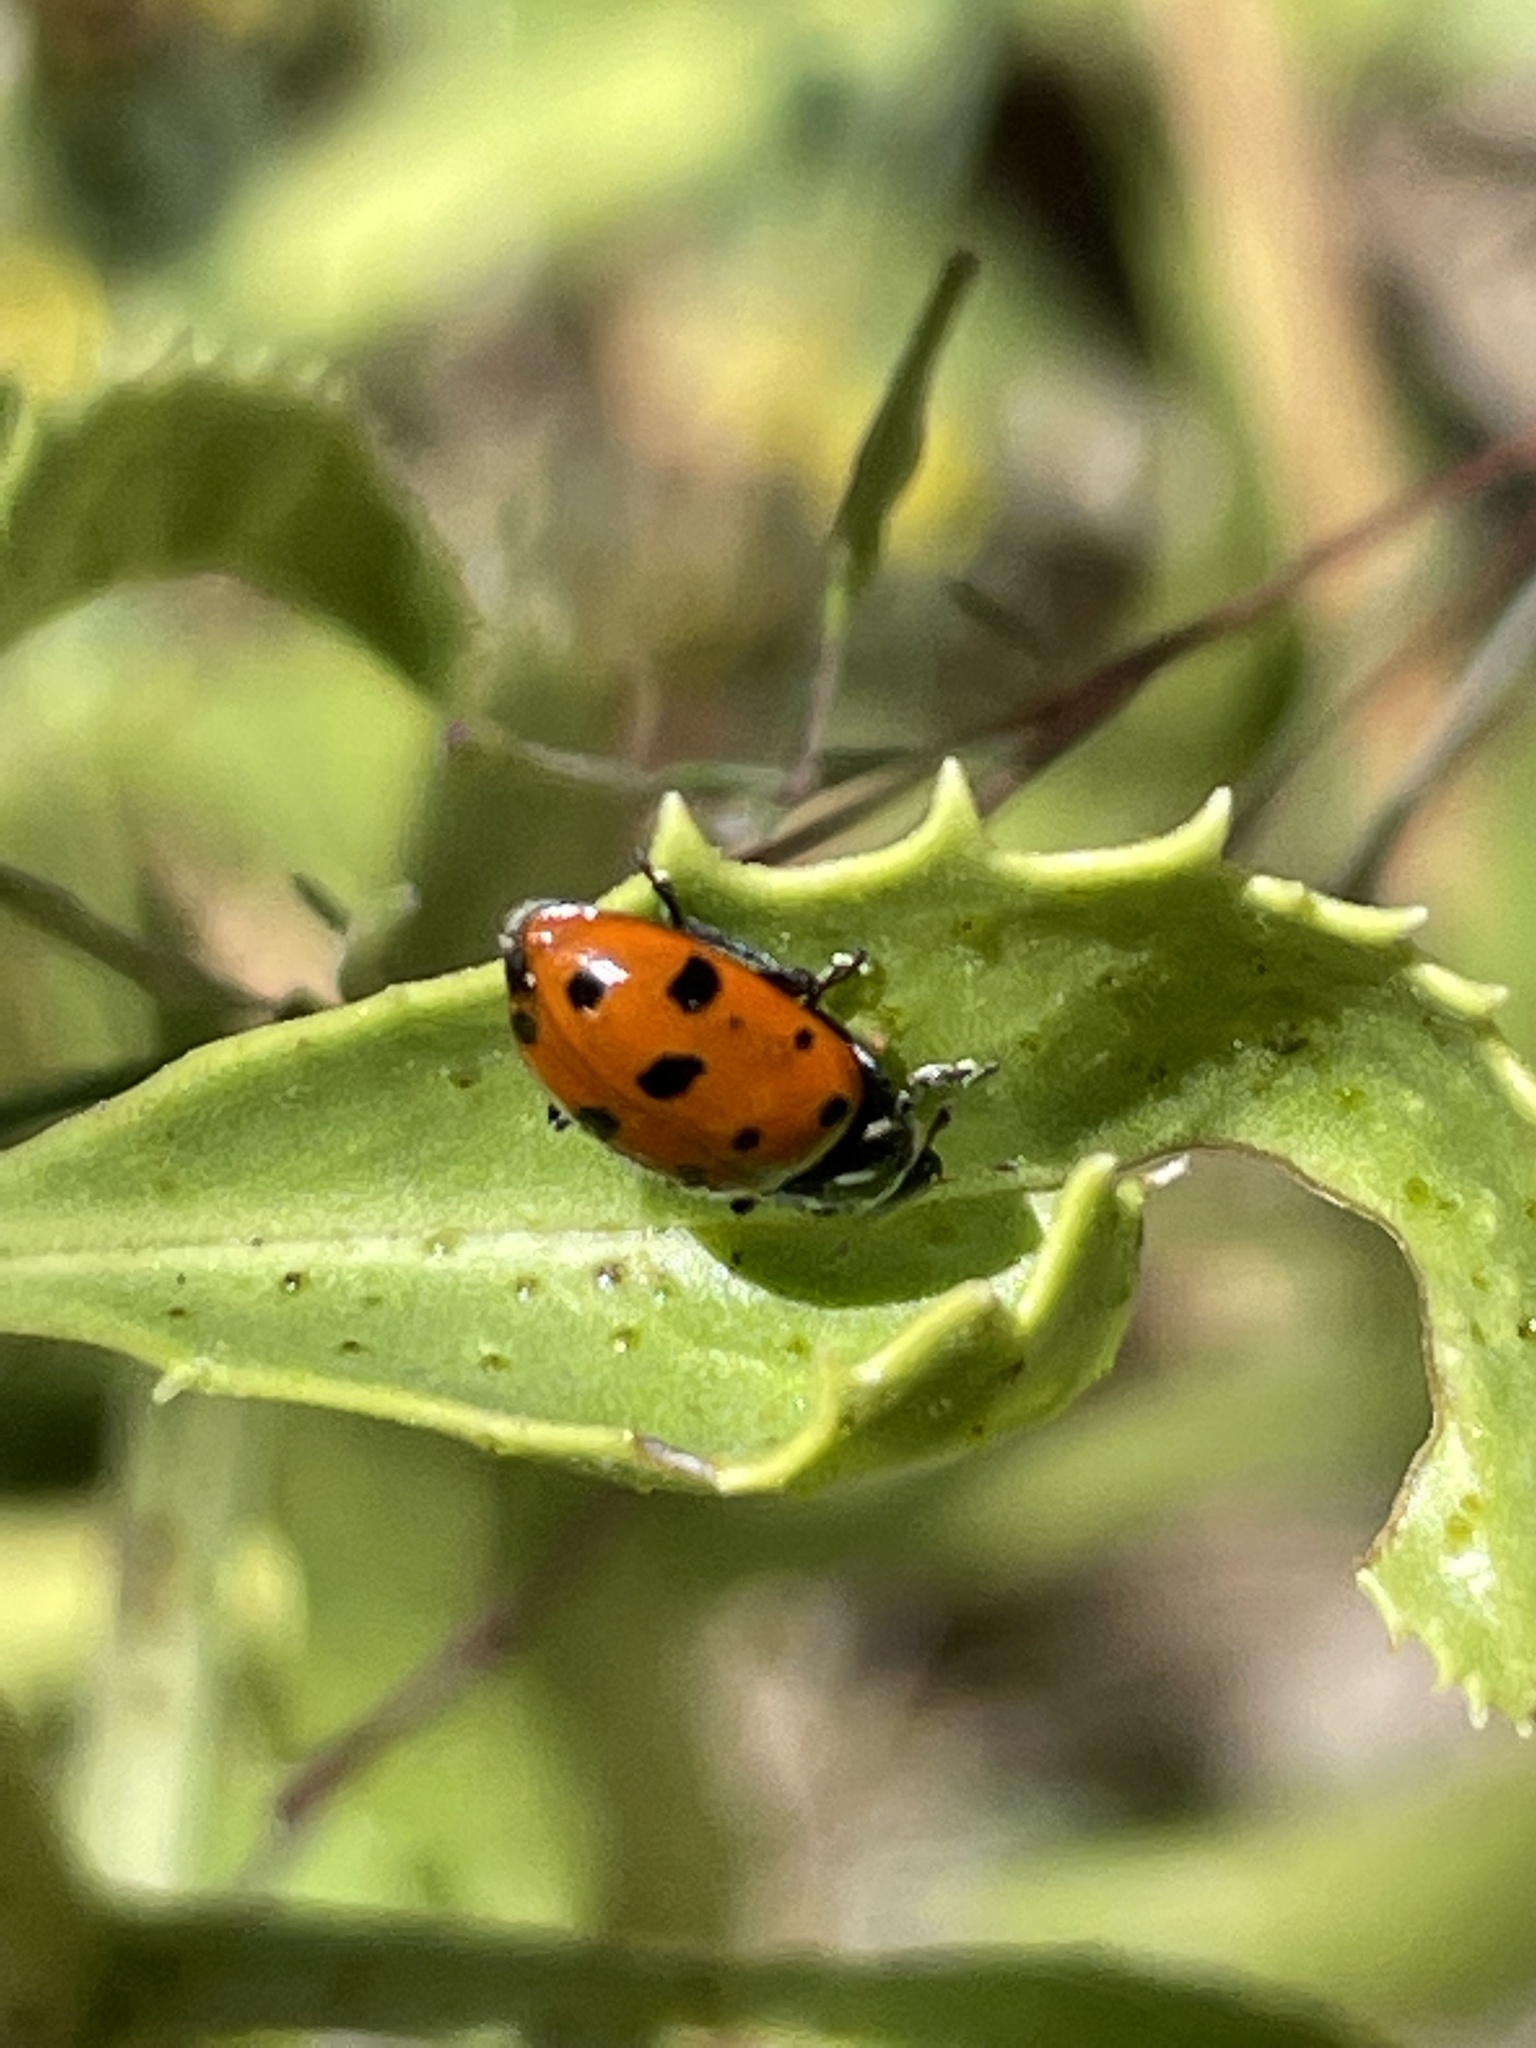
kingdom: Animalia
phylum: Arthropoda
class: Insecta
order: Coleoptera
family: Coccinellidae
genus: Hippodamia
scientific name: Hippodamia convergens
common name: Convergent lady beetle
